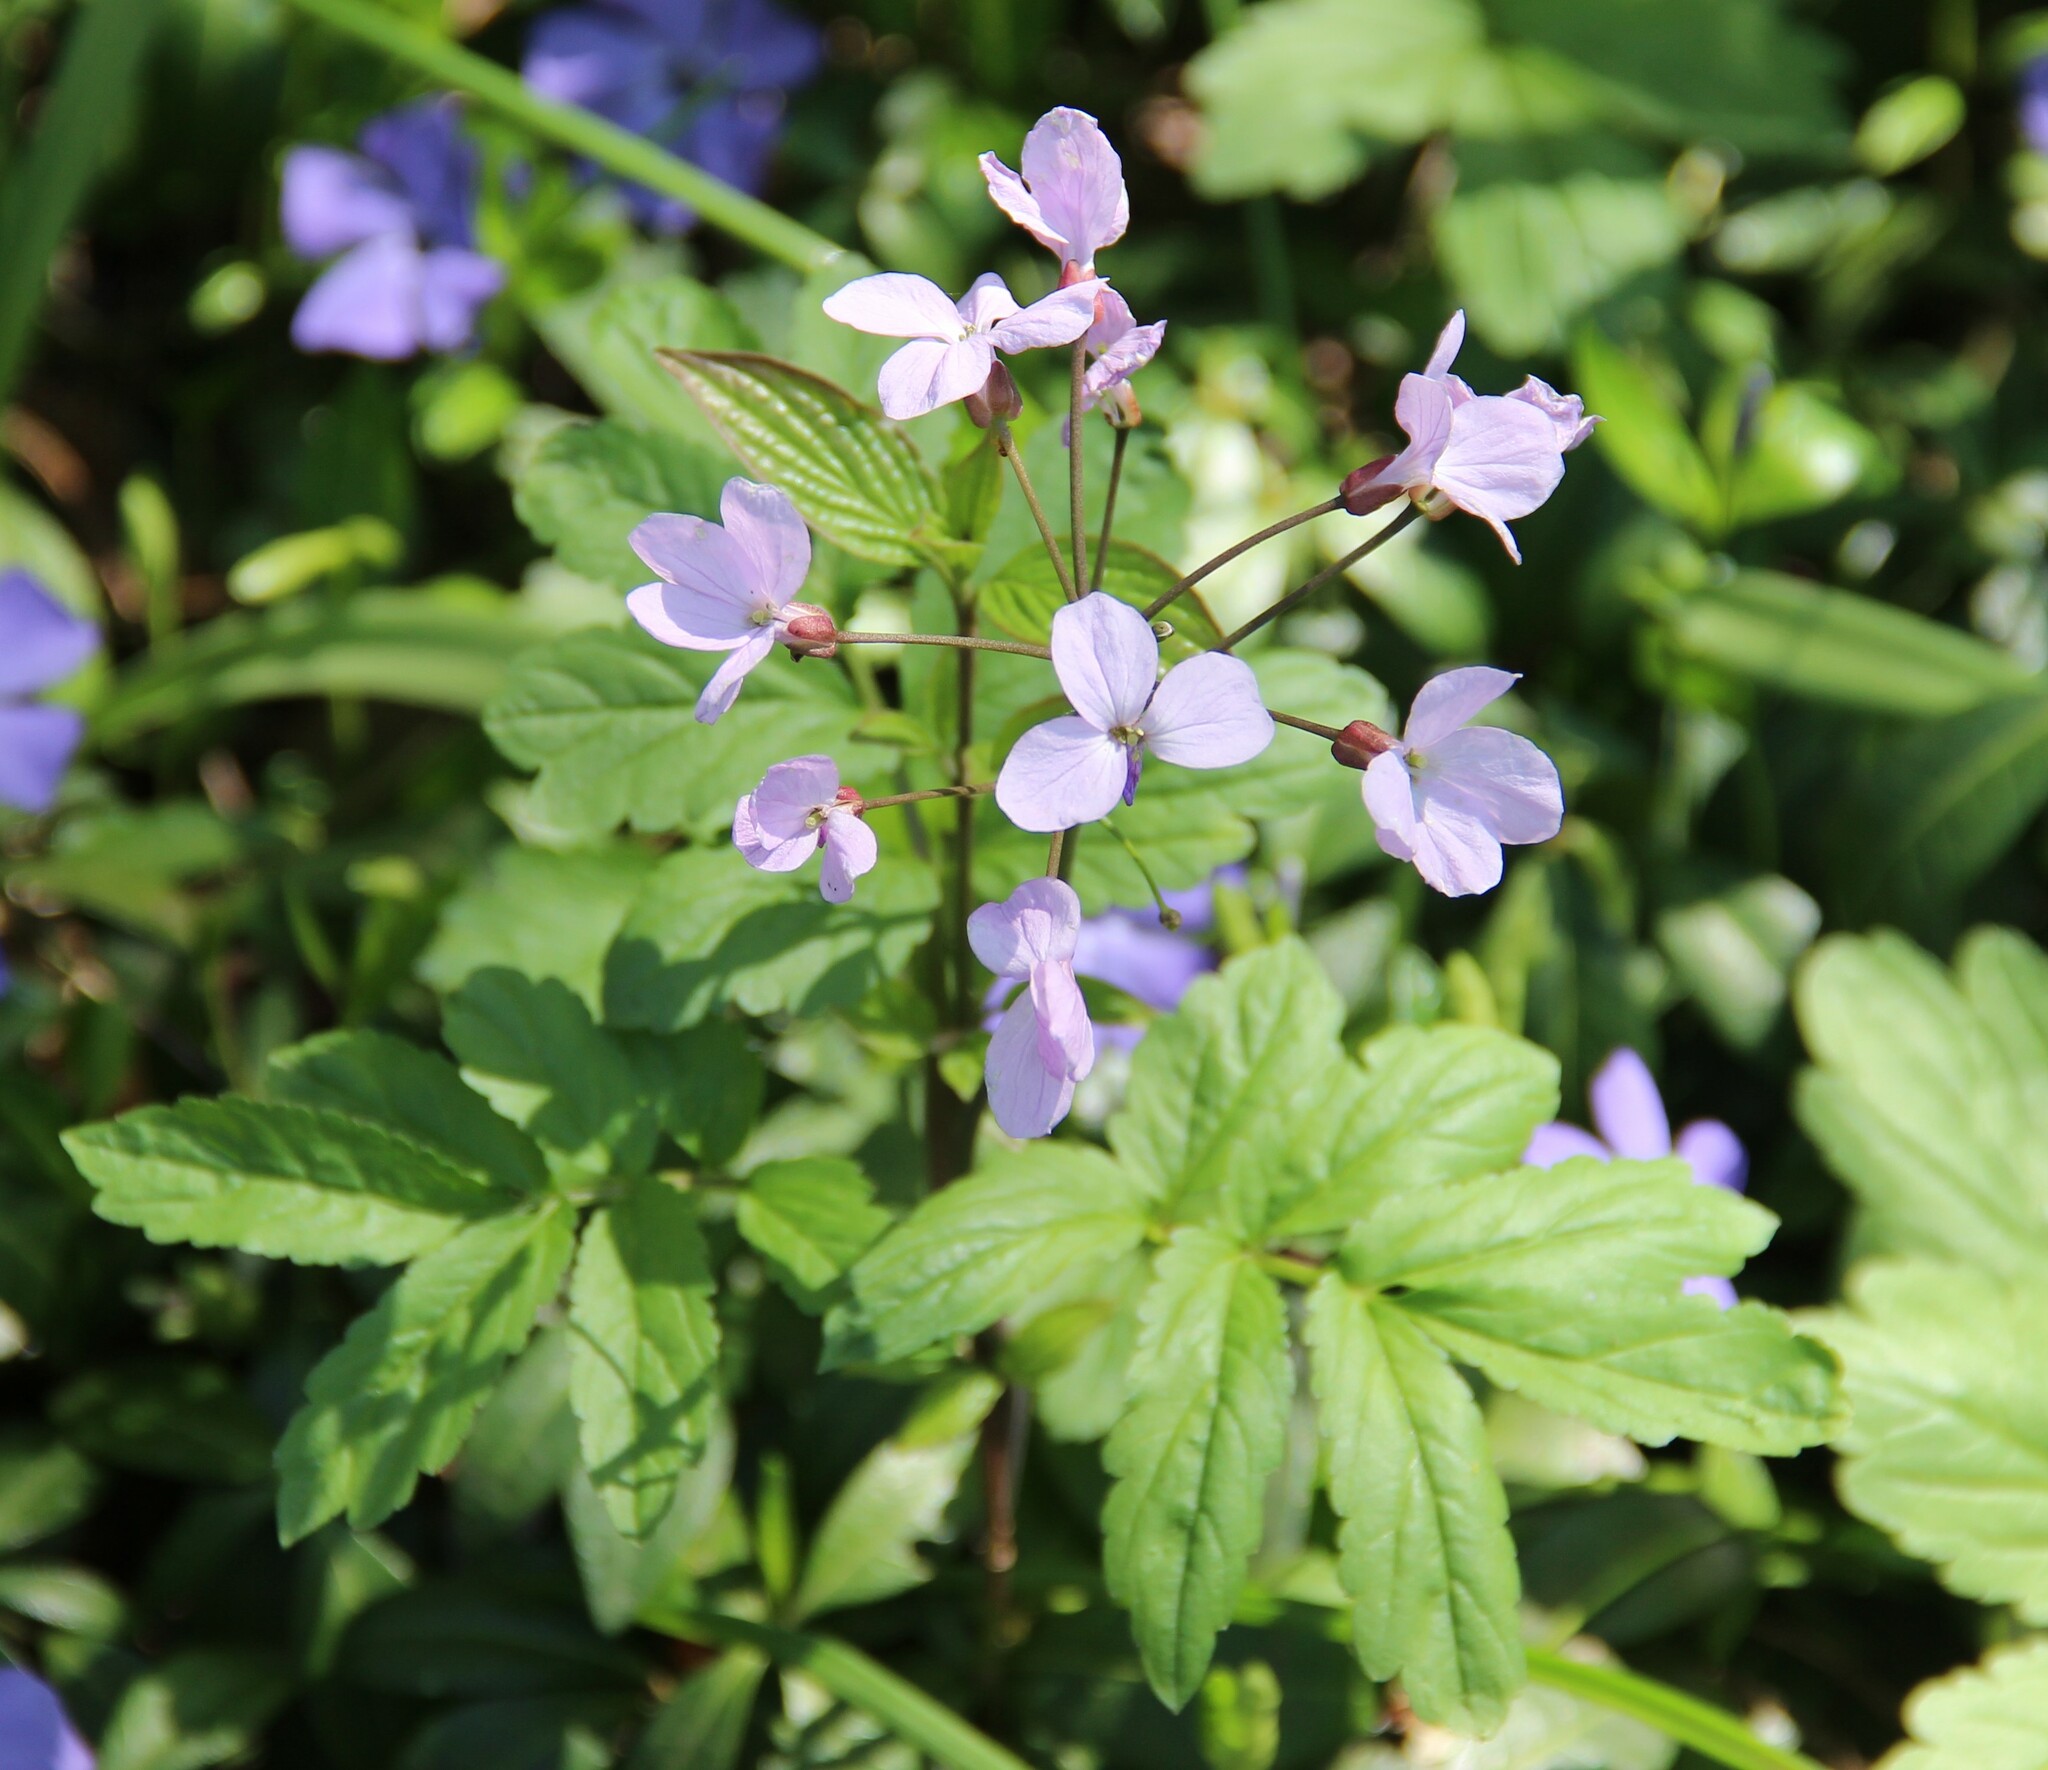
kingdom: Plantae
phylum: Tracheophyta
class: Magnoliopsida
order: Brassicales
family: Brassicaceae
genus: Cardamine
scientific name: Cardamine quinquefolia
